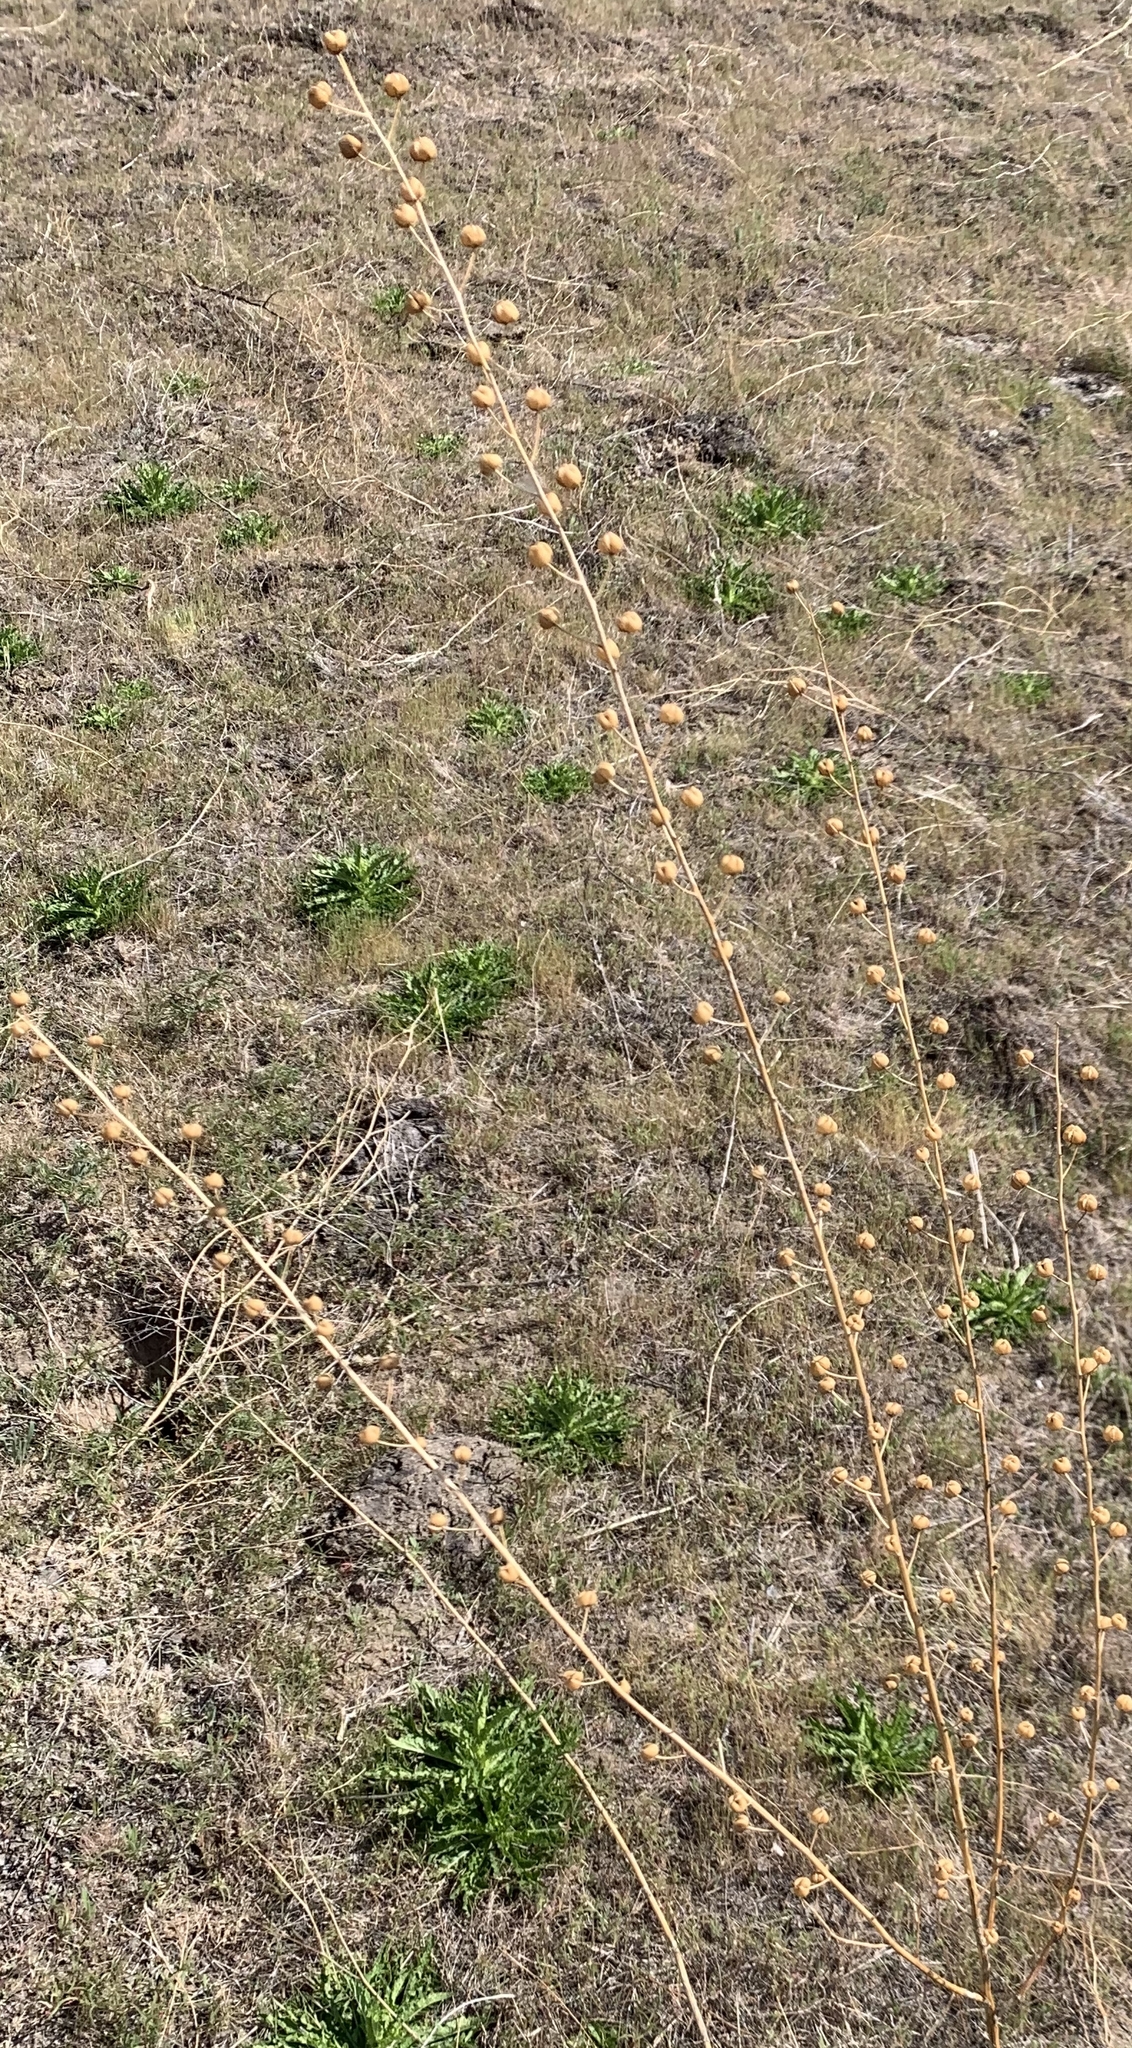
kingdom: Plantae
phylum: Tracheophyta
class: Magnoliopsida
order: Lamiales
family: Scrophulariaceae
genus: Verbascum
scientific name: Verbascum blattaria
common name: Moth mullein
